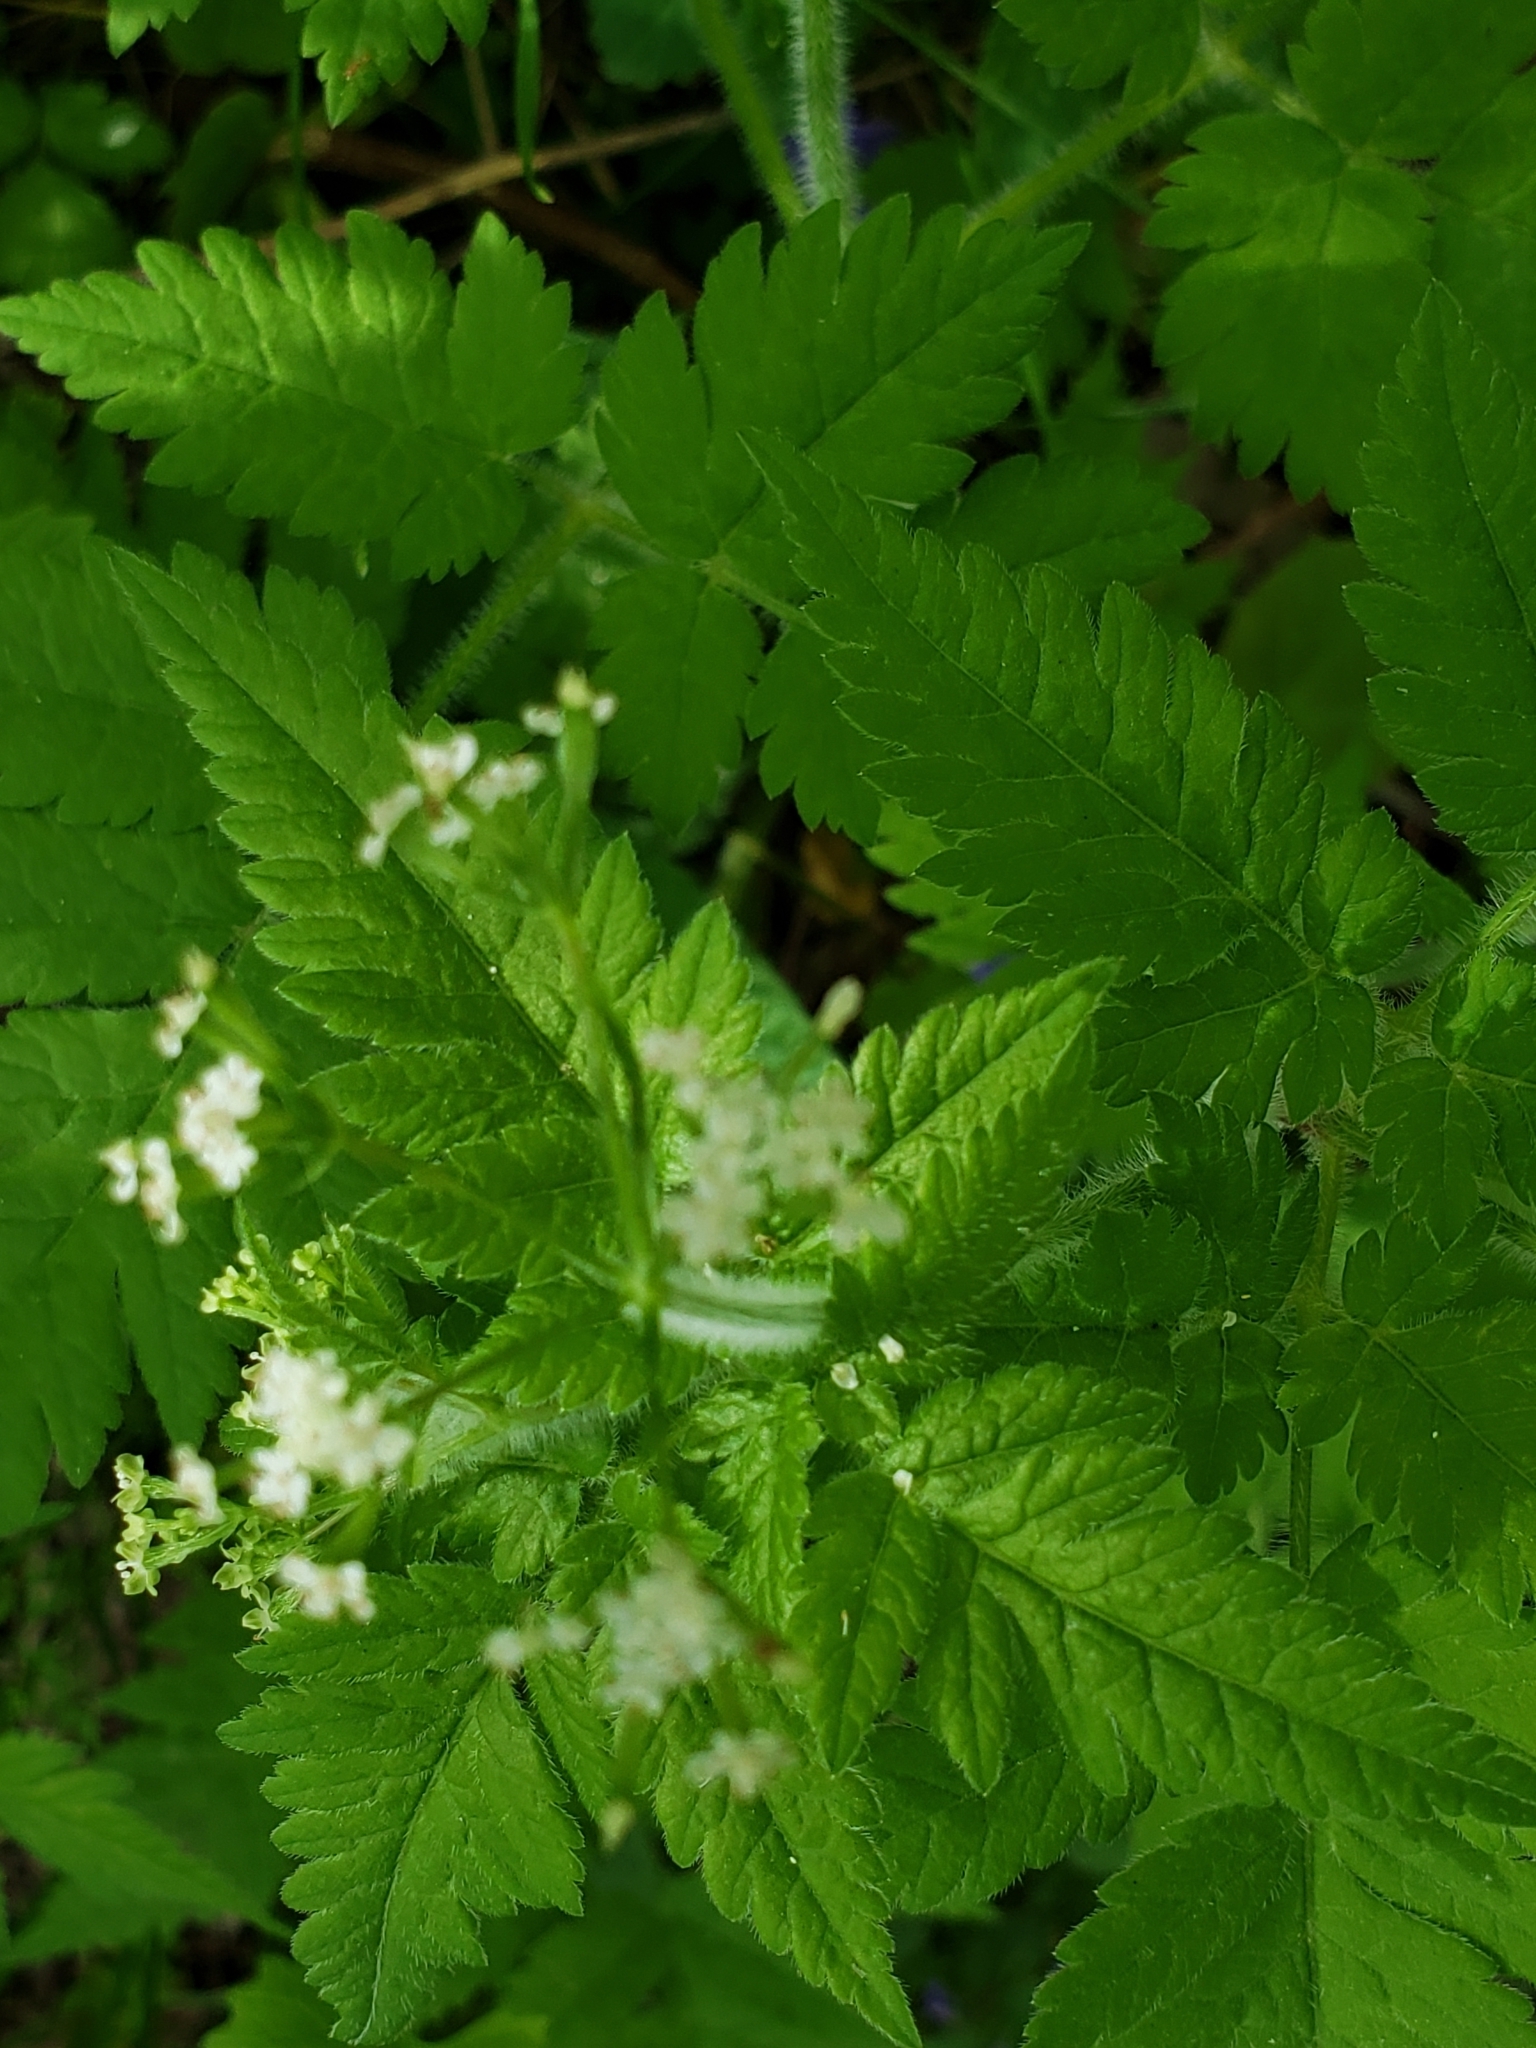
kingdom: Plantae
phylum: Tracheophyta
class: Magnoliopsida
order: Apiales
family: Apiaceae
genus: Osmorhiza
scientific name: Osmorhiza claytonii
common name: Hairy sweet cicely
